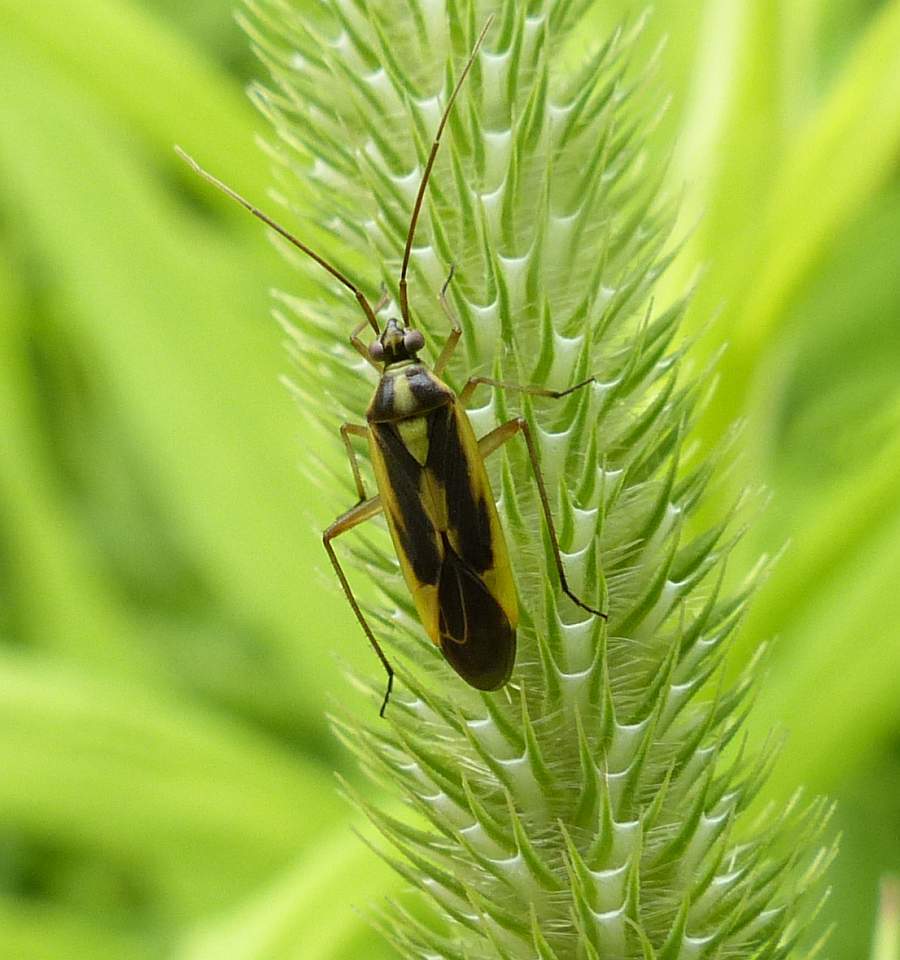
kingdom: Animalia
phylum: Arthropoda
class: Insecta
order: Hemiptera
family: Miridae
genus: Stenotus
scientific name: Stenotus binotatus
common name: Plant bug
